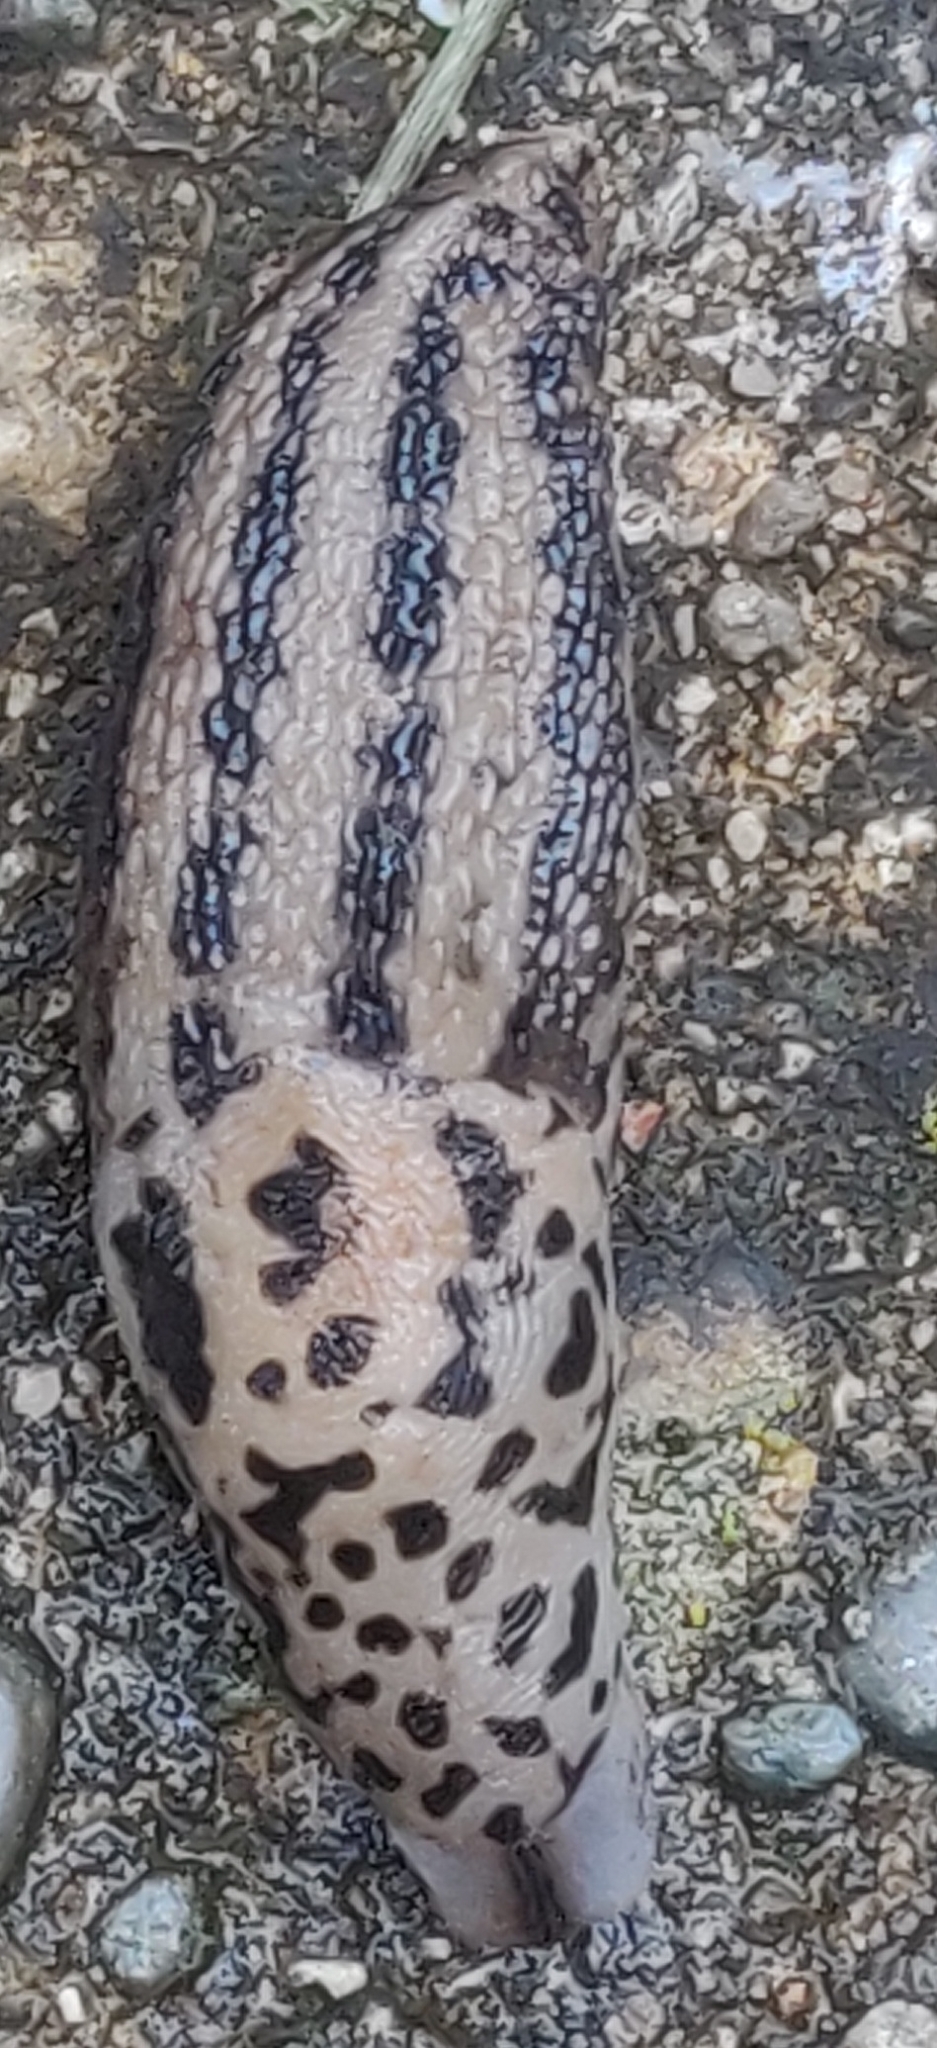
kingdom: Animalia
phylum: Mollusca
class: Gastropoda
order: Stylommatophora
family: Limacidae
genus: Limax
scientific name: Limax maximus
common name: Great grey slug
